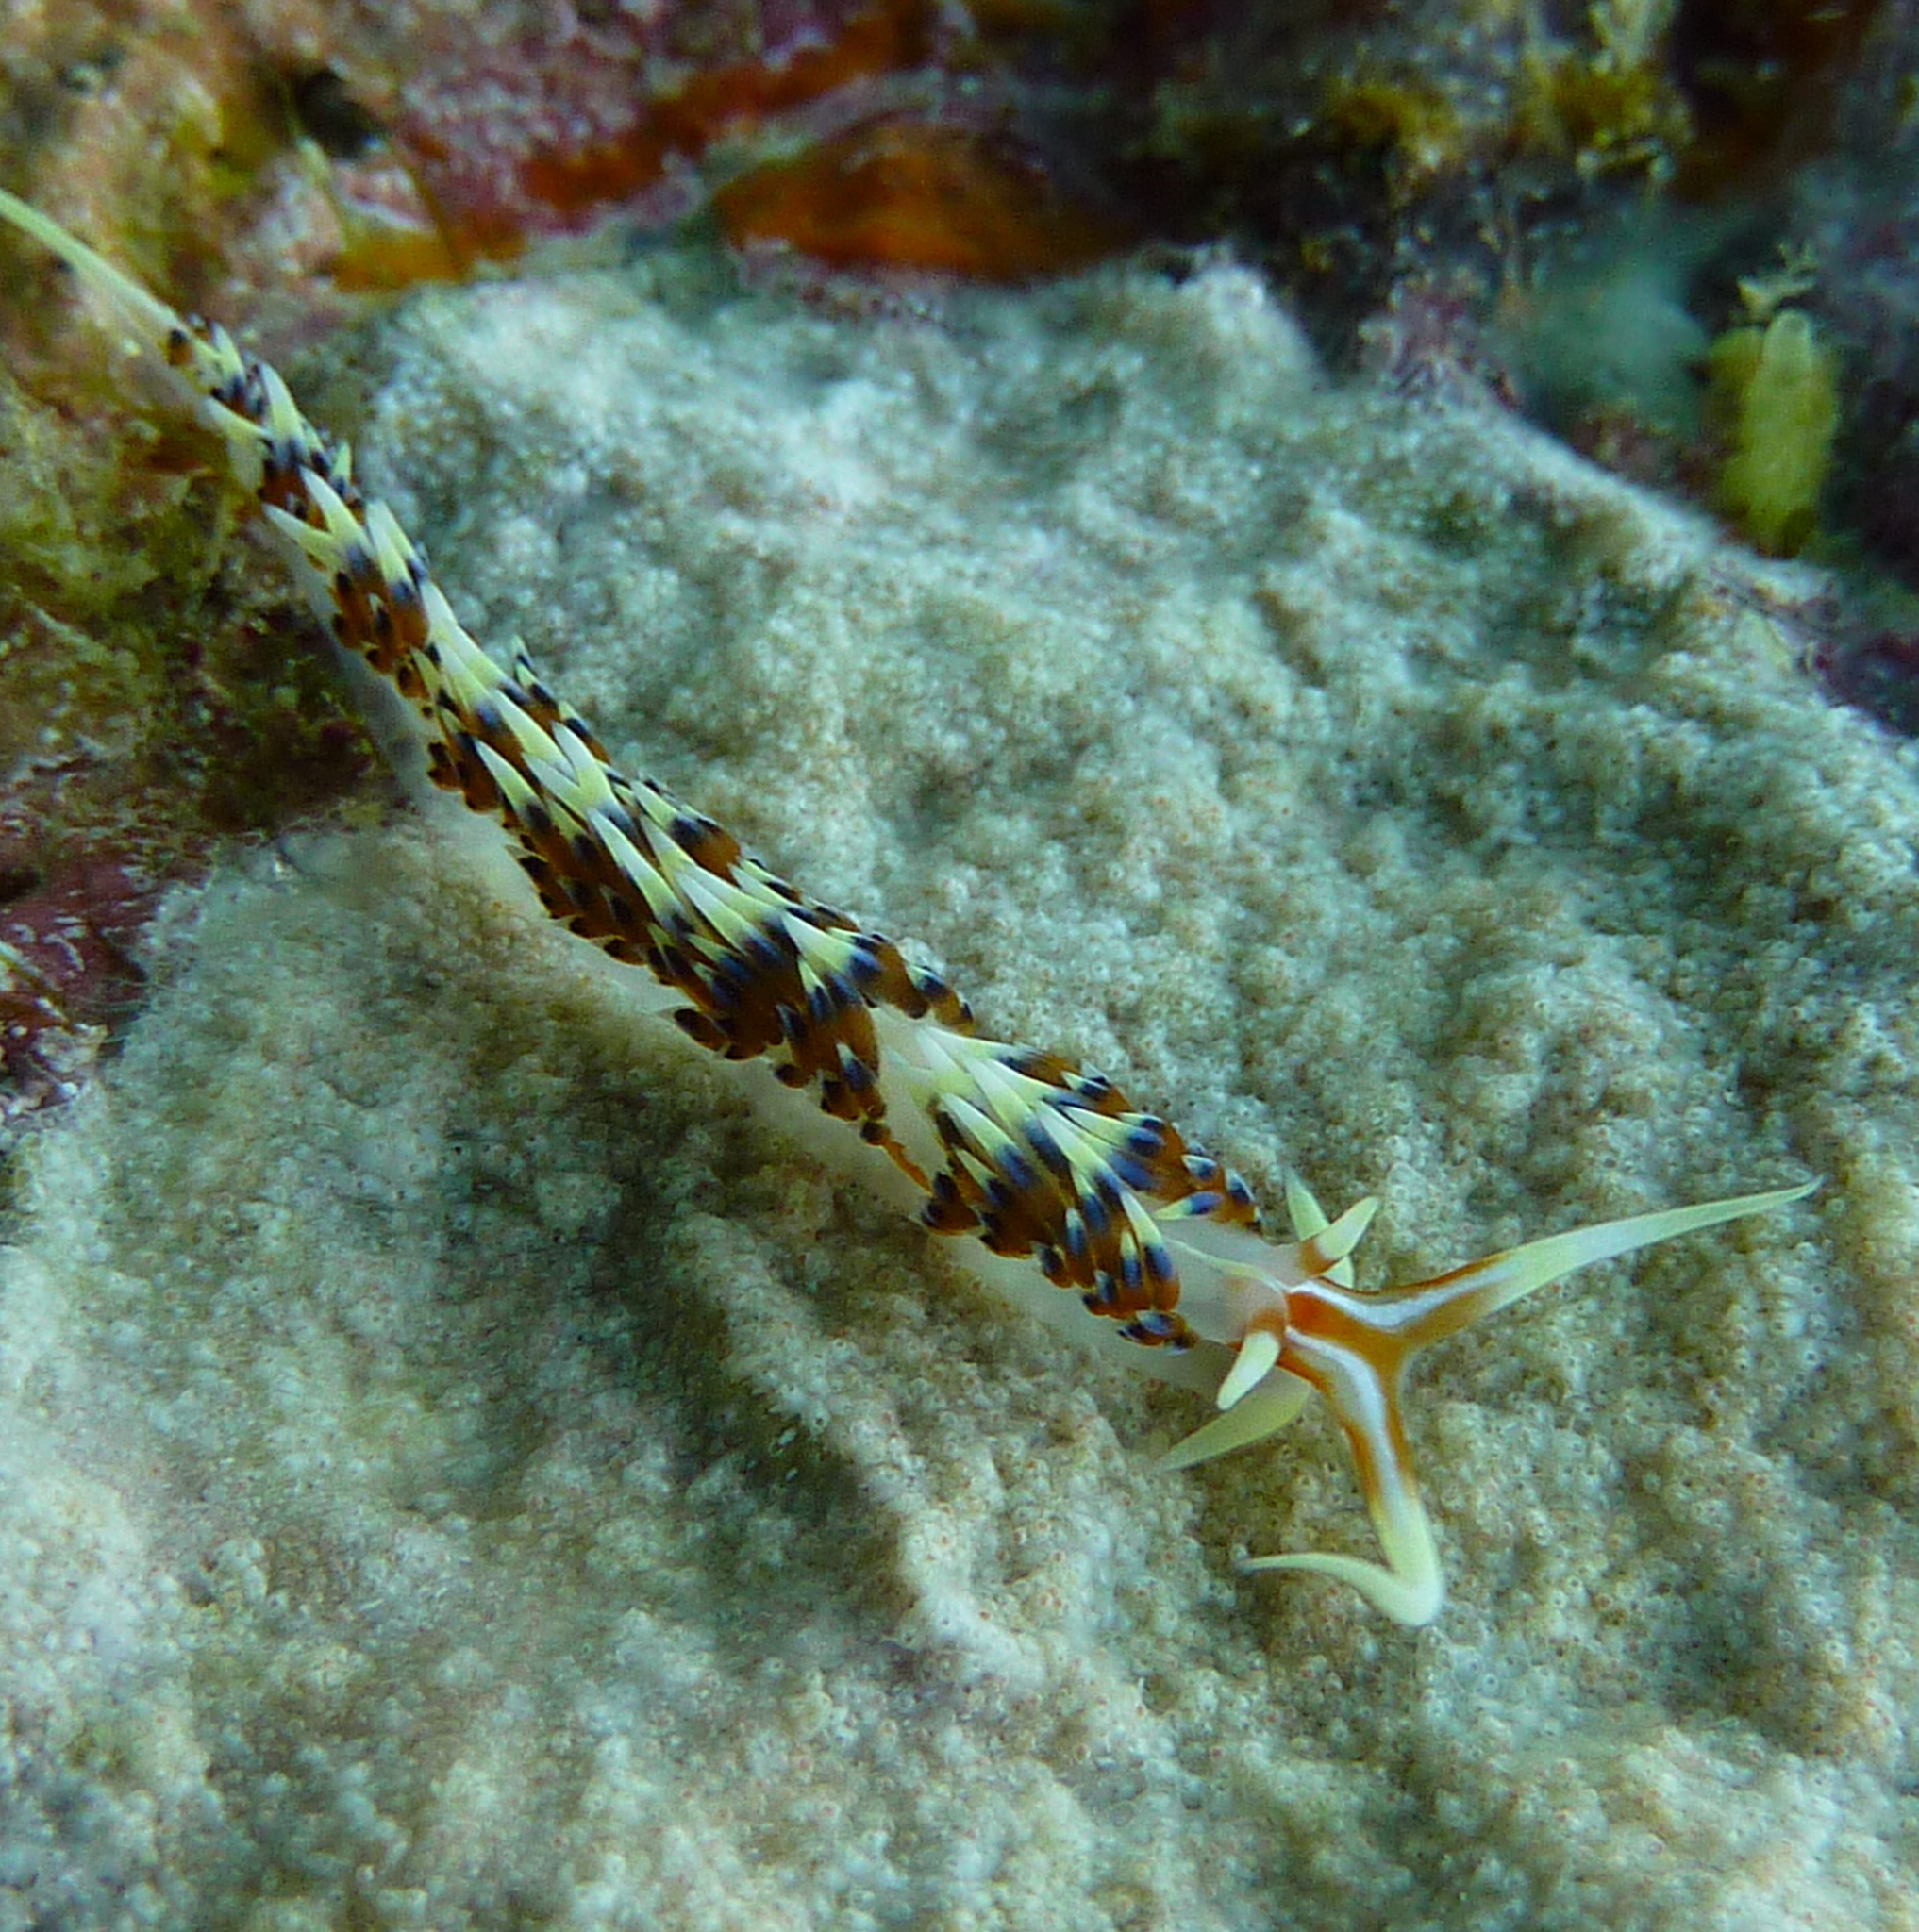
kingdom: Animalia
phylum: Mollusca
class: Gastropoda
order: Nudibranchia
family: Facelinidae
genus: Caloria
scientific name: Caloria indica
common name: Sea slug
